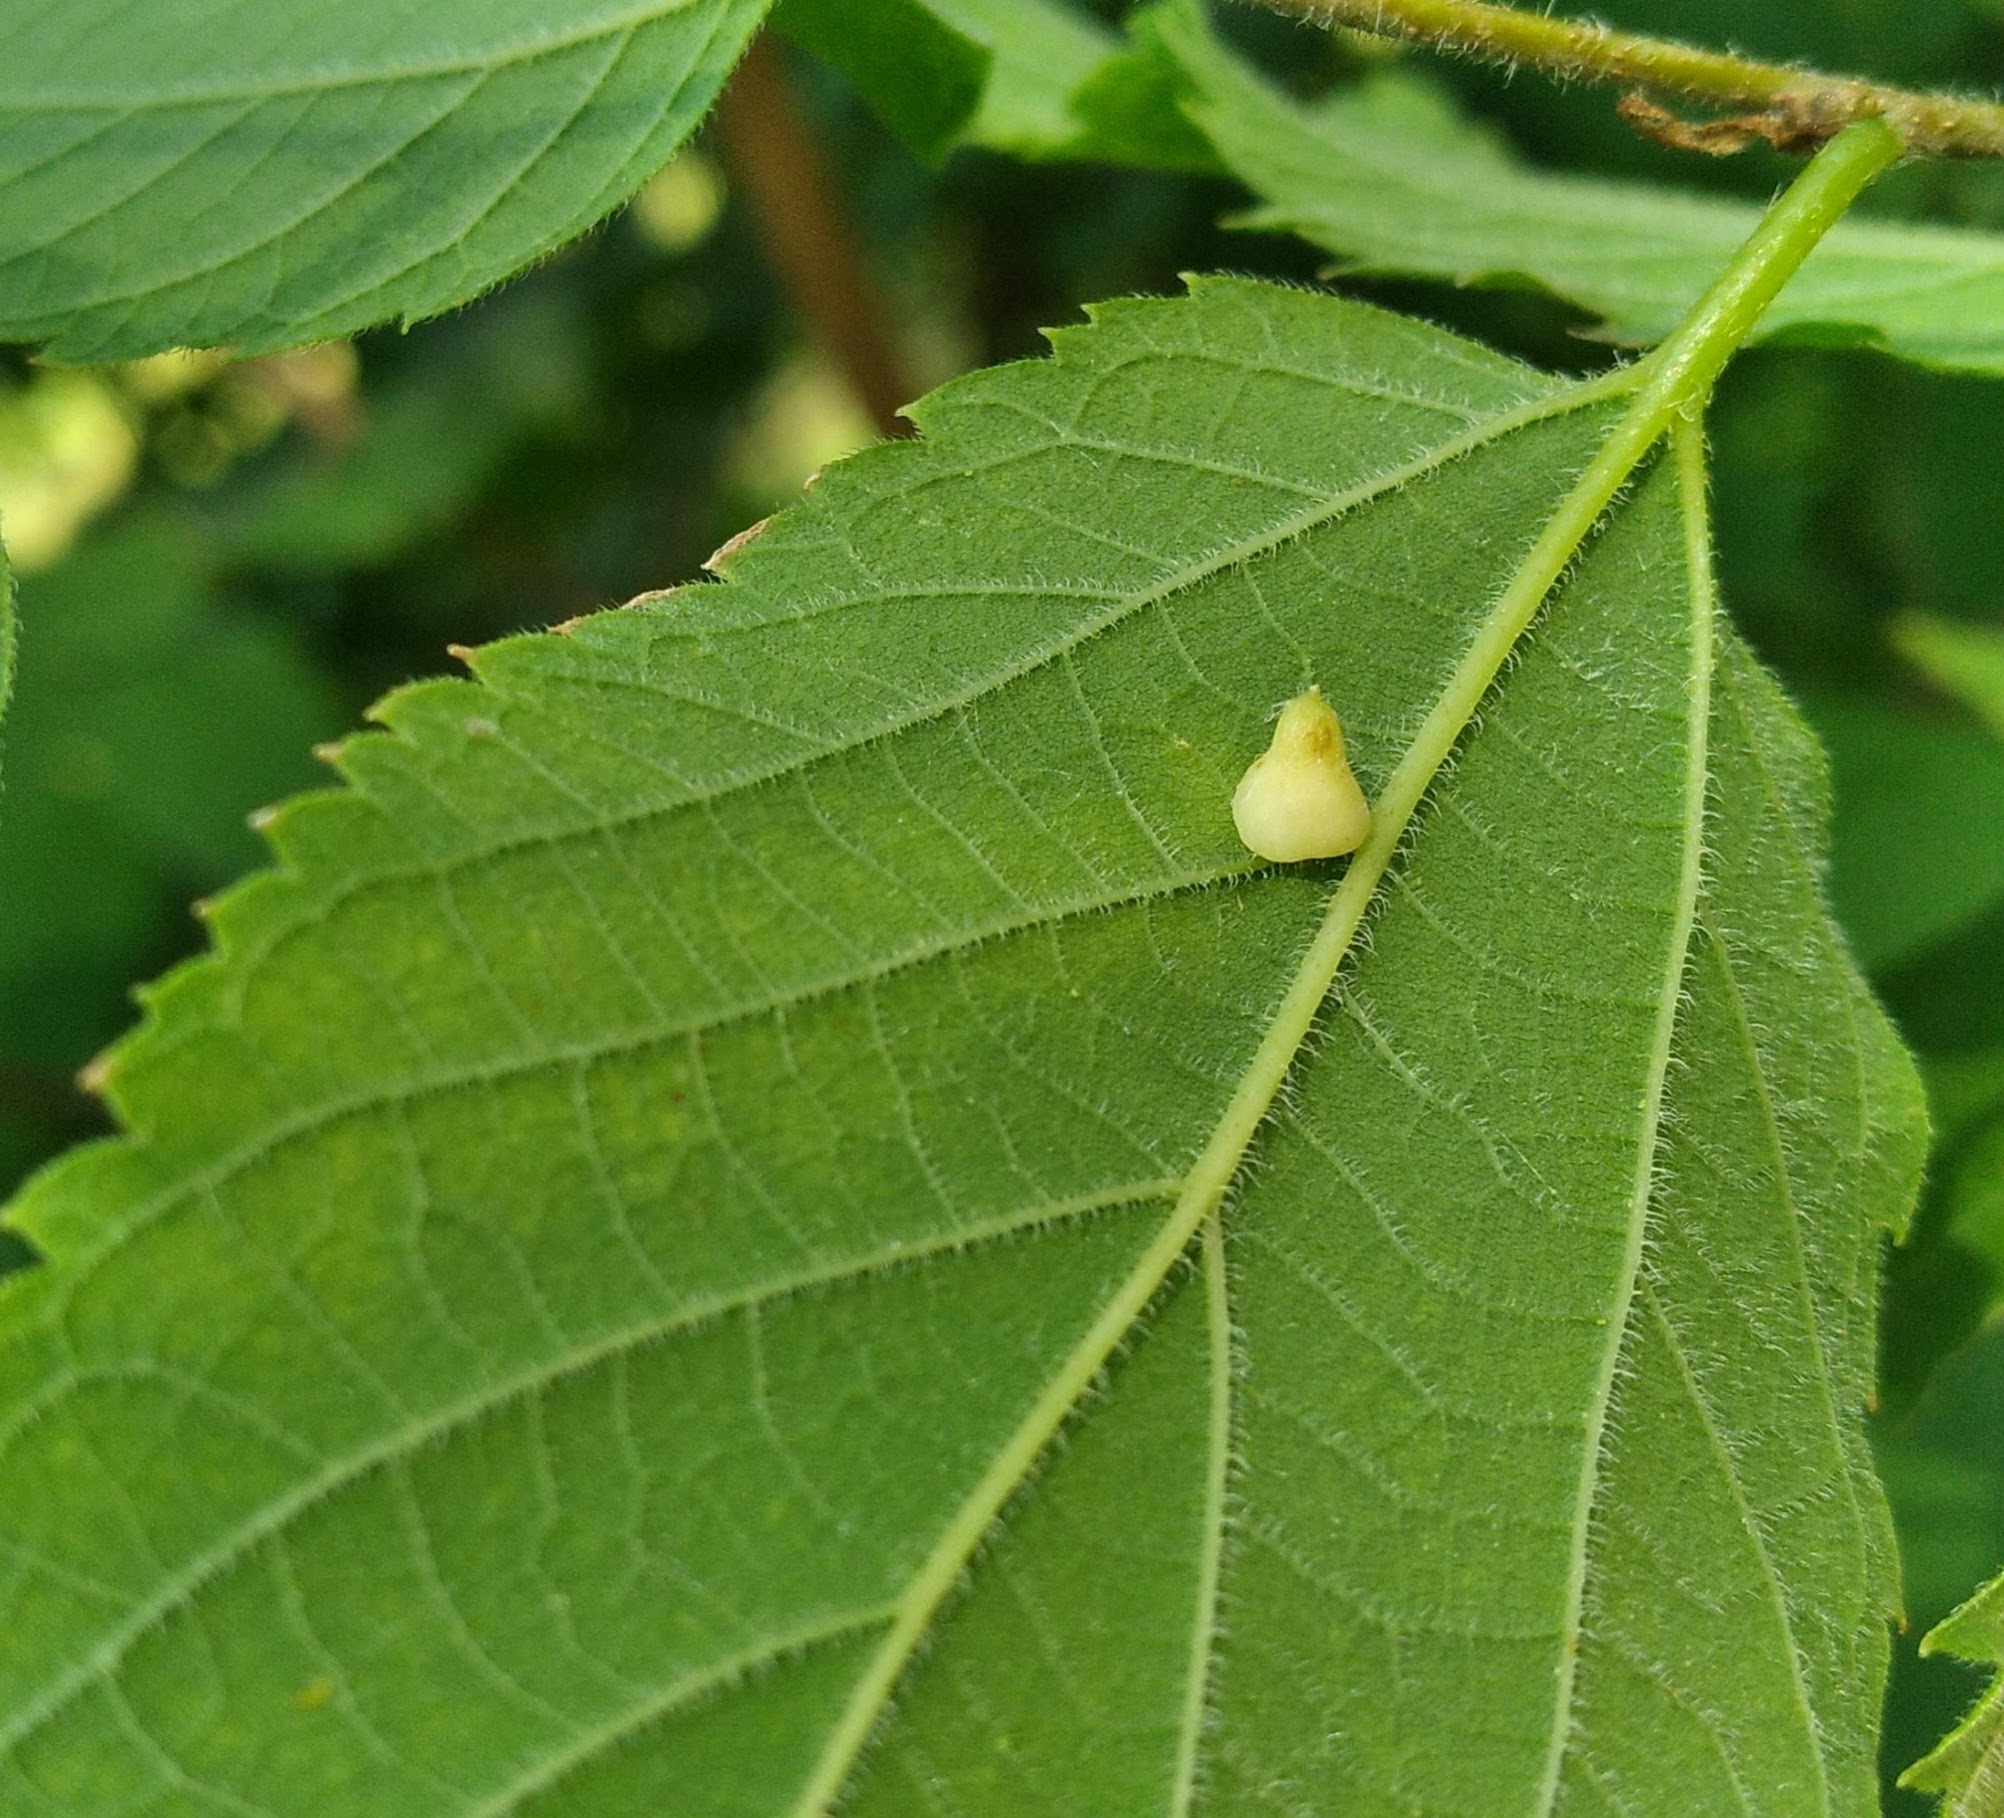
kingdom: Animalia
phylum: Arthropoda
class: Insecta
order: Diptera
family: Cecidomyiidae
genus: Celticecis
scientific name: Celticecis pyriformis
